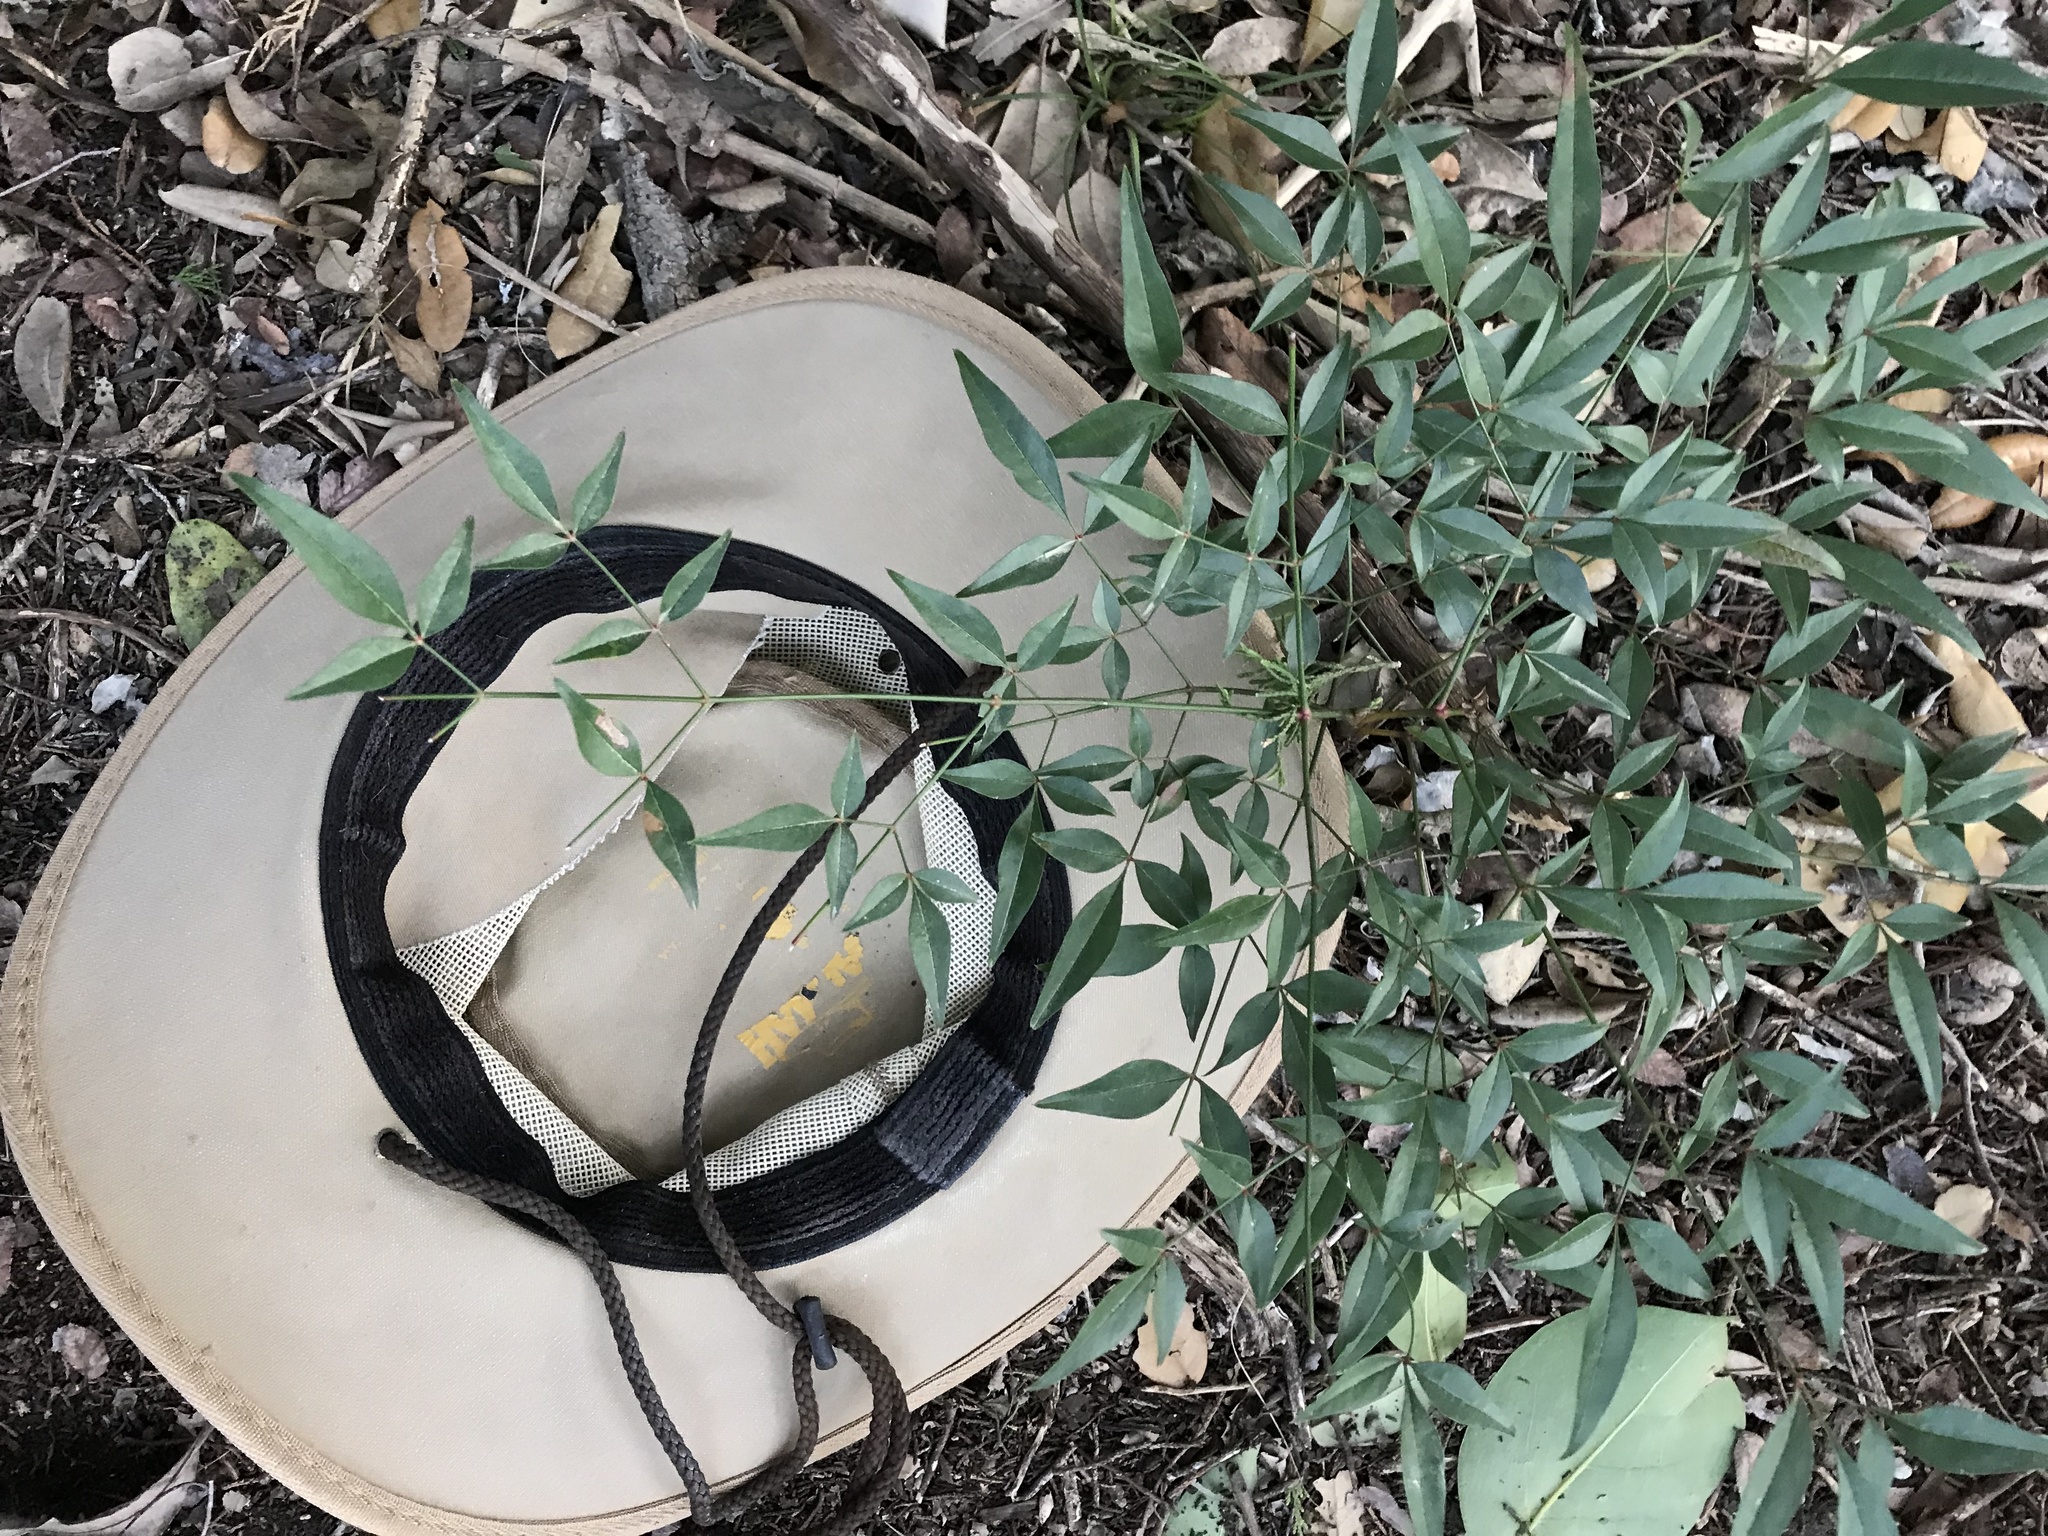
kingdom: Plantae
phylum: Tracheophyta
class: Magnoliopsida
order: Ranunculales
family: Berberidaceae
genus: Nandina
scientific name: Nandina domestica
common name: Sacred bamboo
